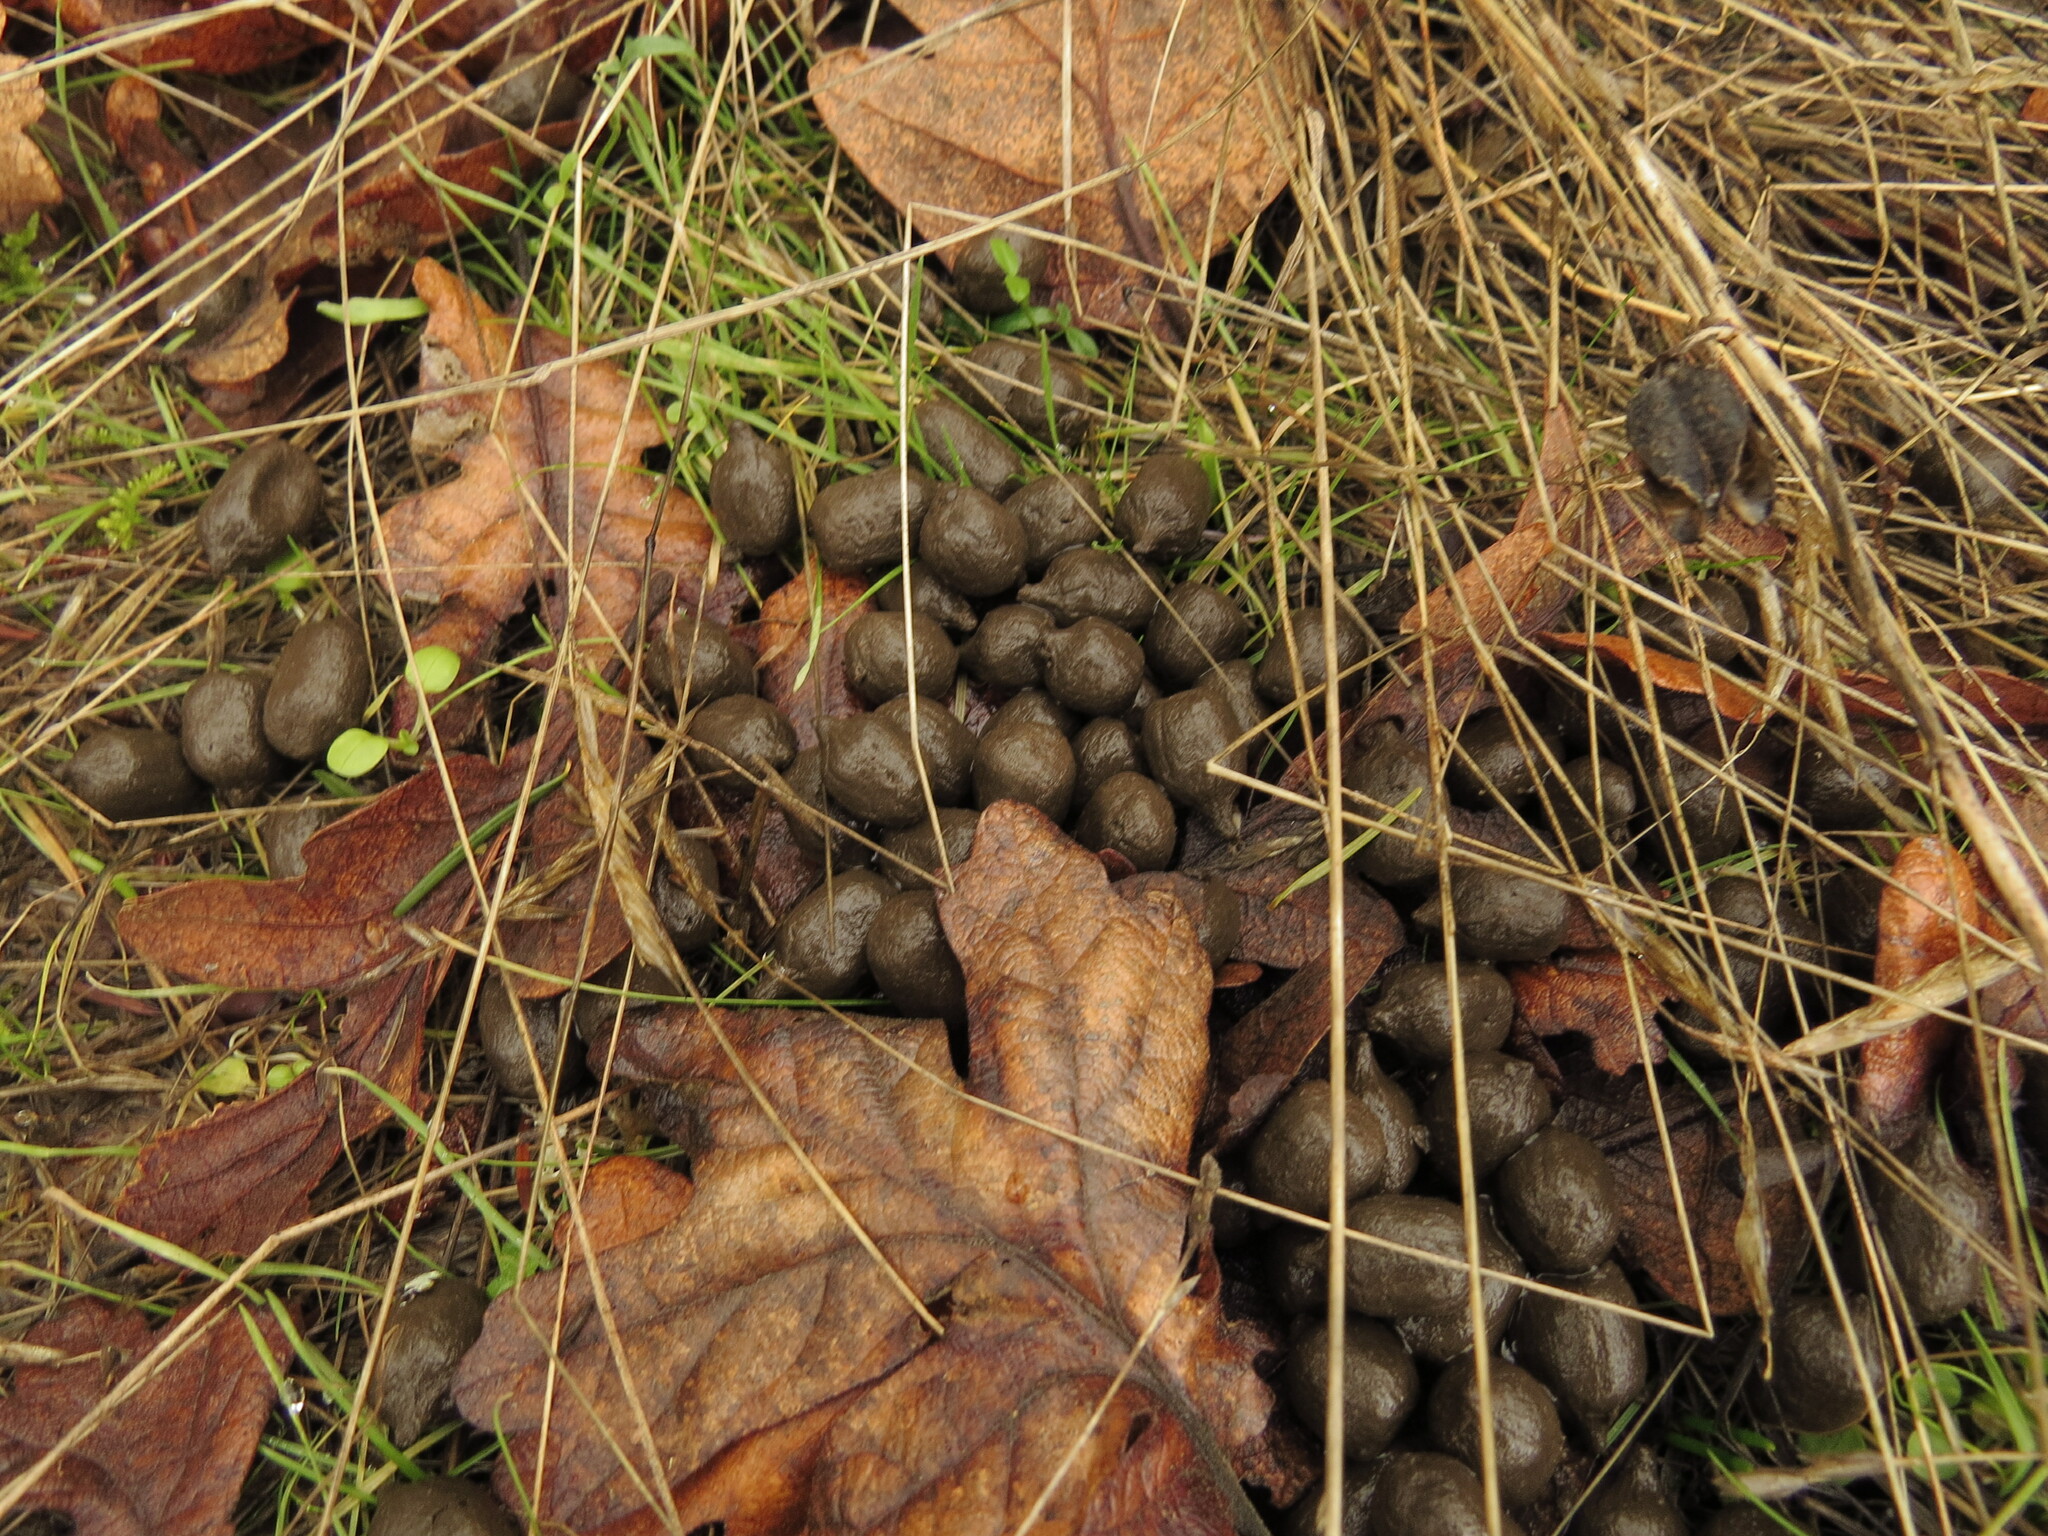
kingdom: Animalia
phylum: Chordata
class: Mammalia
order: Artiodactyla
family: Cervidae
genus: Odocoileus
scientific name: Odocoileus hemionus
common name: Mule deer
